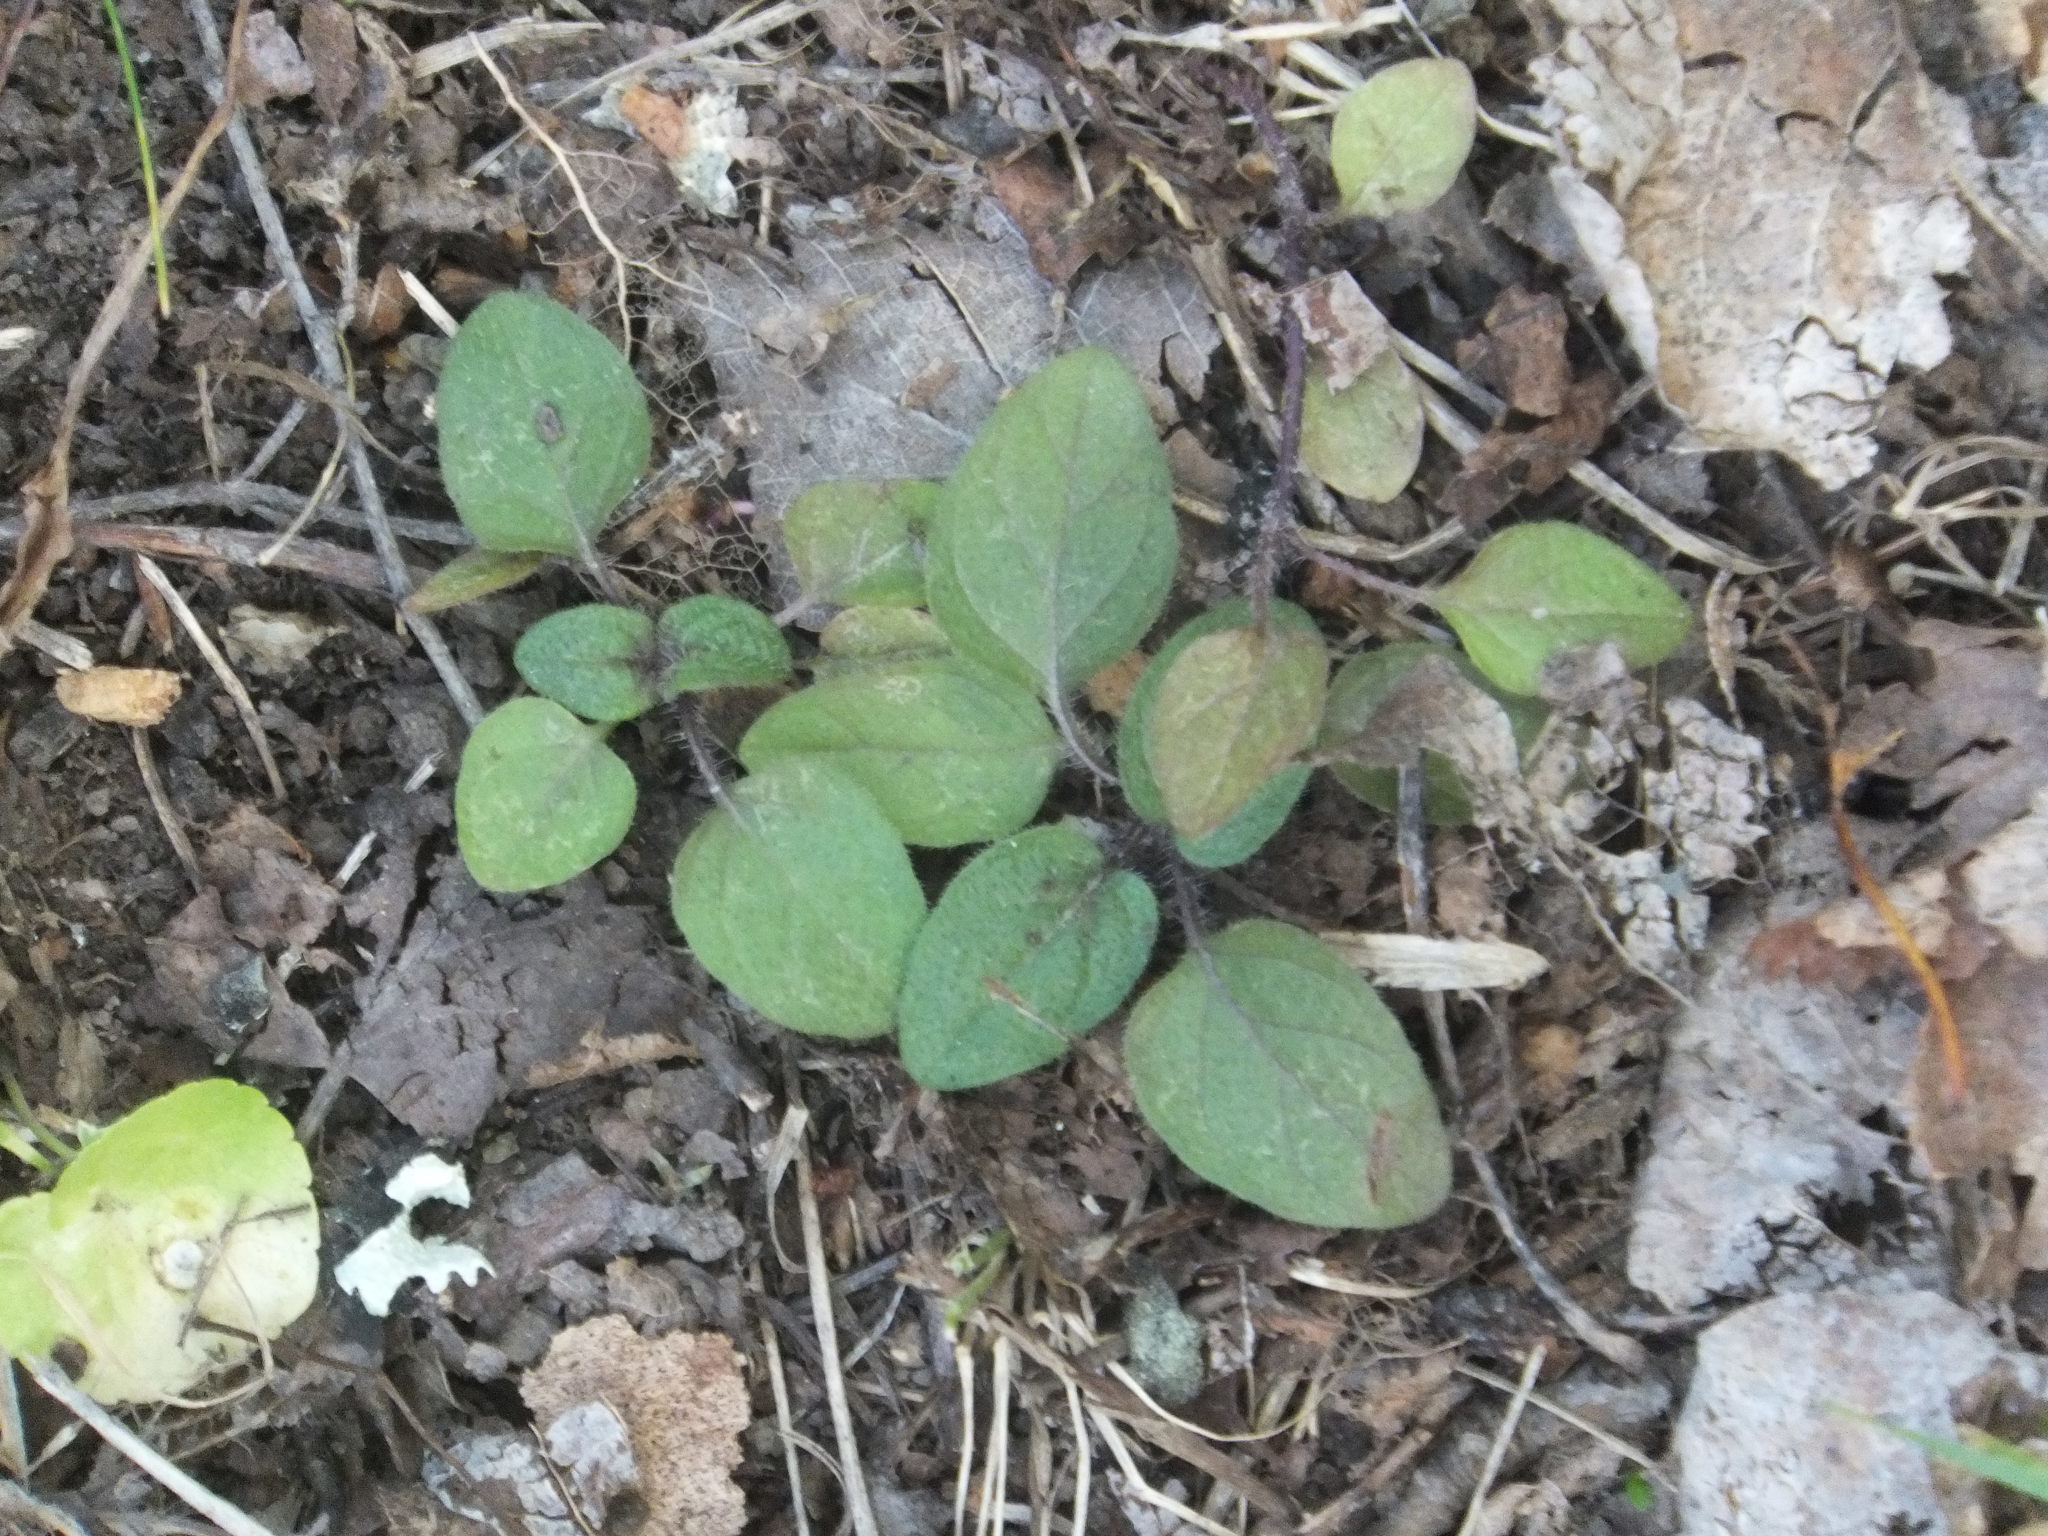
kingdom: Plantae
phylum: Tracheophyta
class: Magnoliopsida
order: Lamiales
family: Lamiaceae
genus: Prunella
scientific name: Prunella vulgaris
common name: Heal-all
